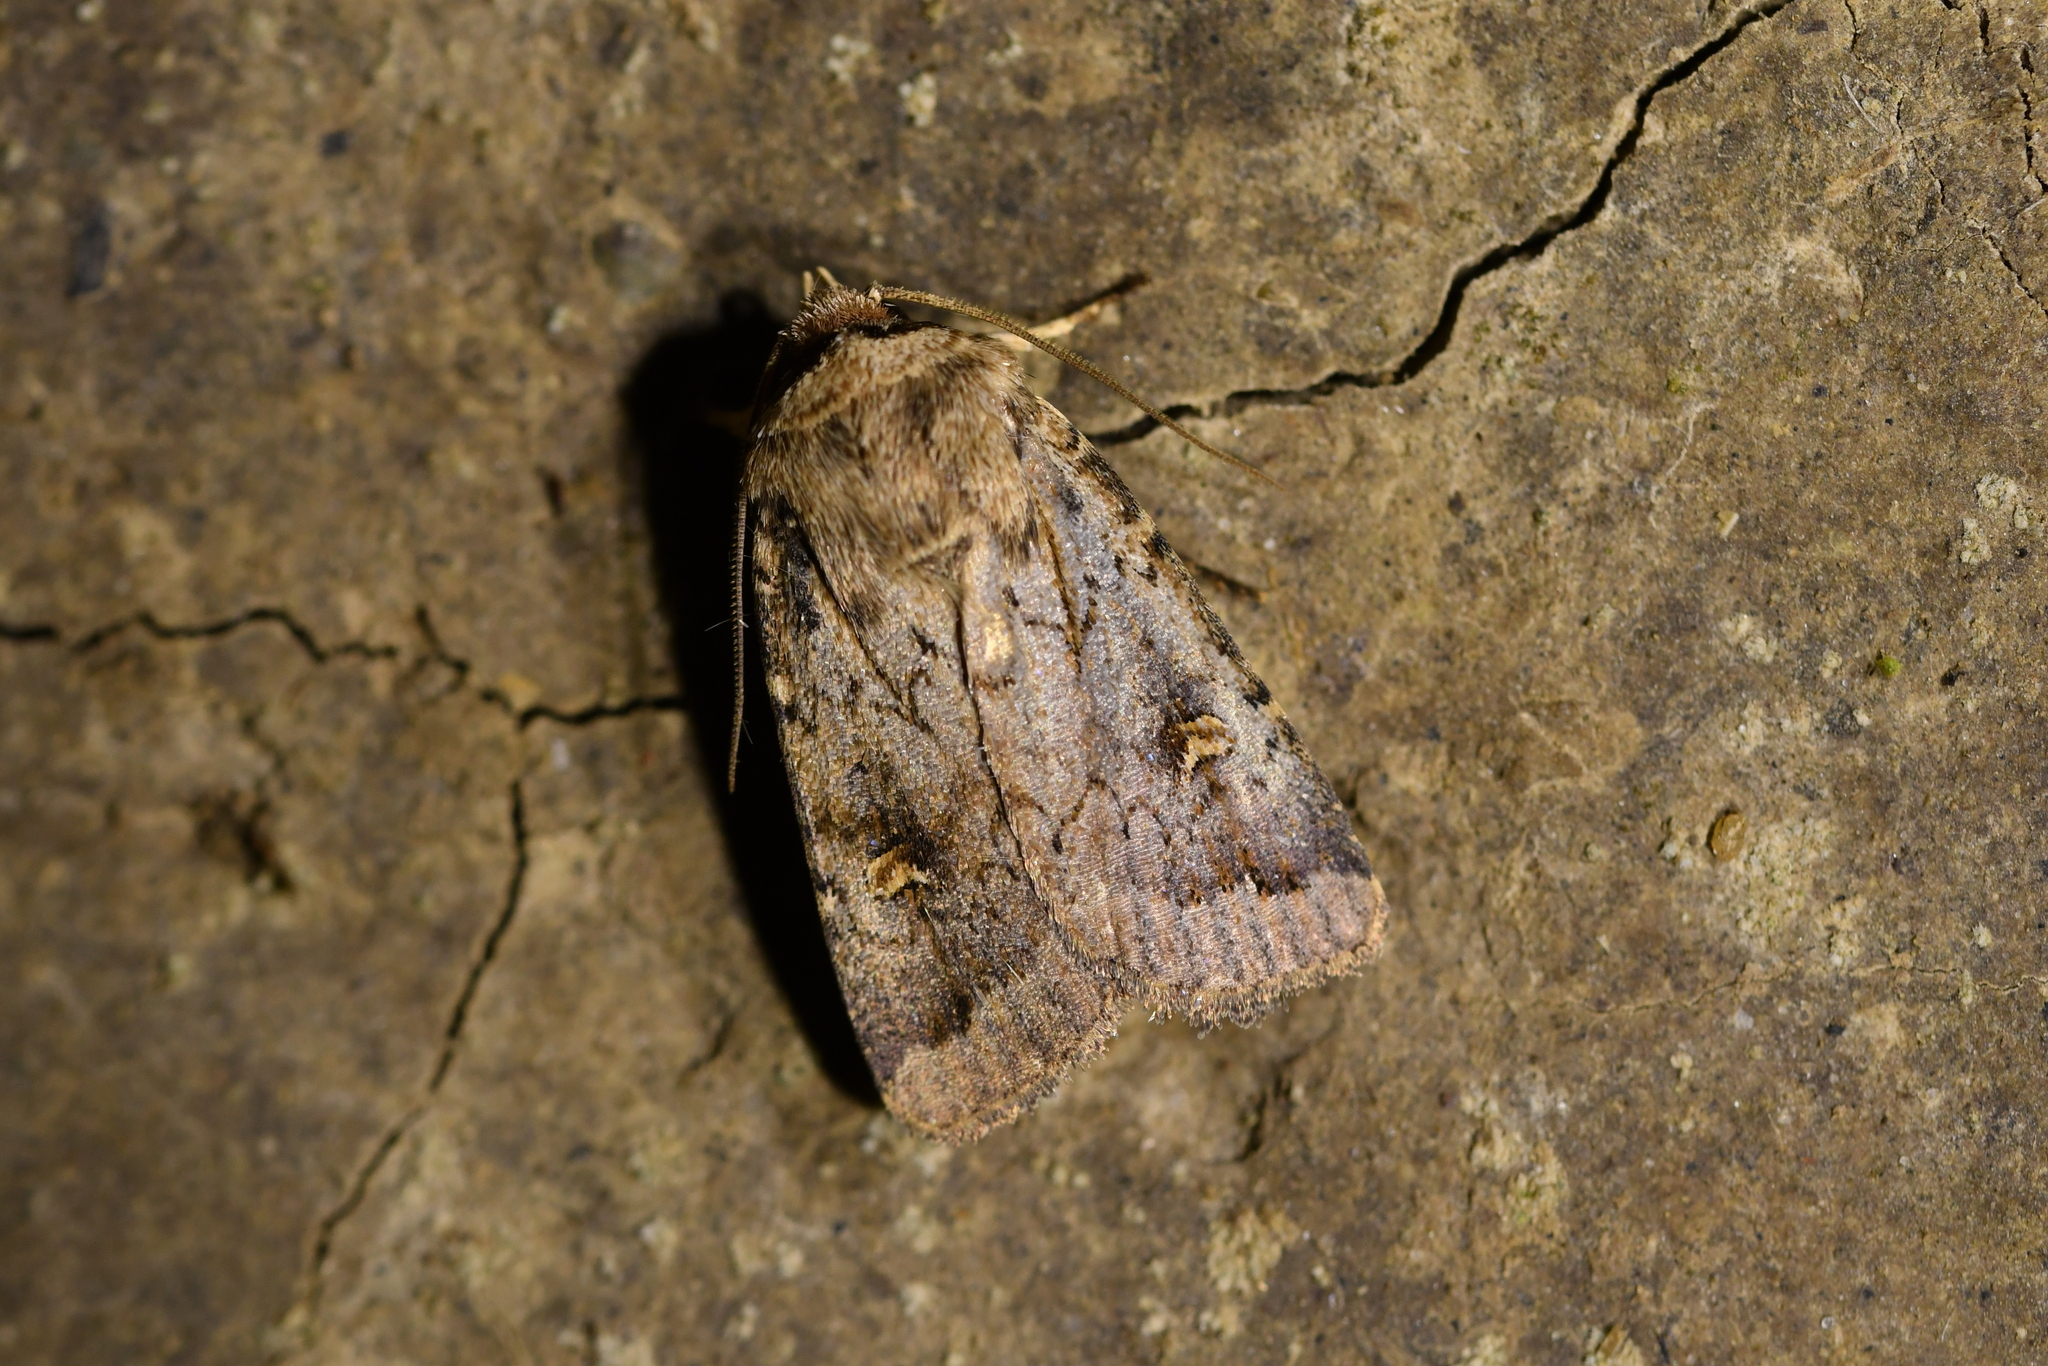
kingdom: Animalia
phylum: Arthropoda
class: Insecta
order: Lepidoptera
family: Noctuidae
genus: Proteuxoa
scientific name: Proteuxoa tetronycha
